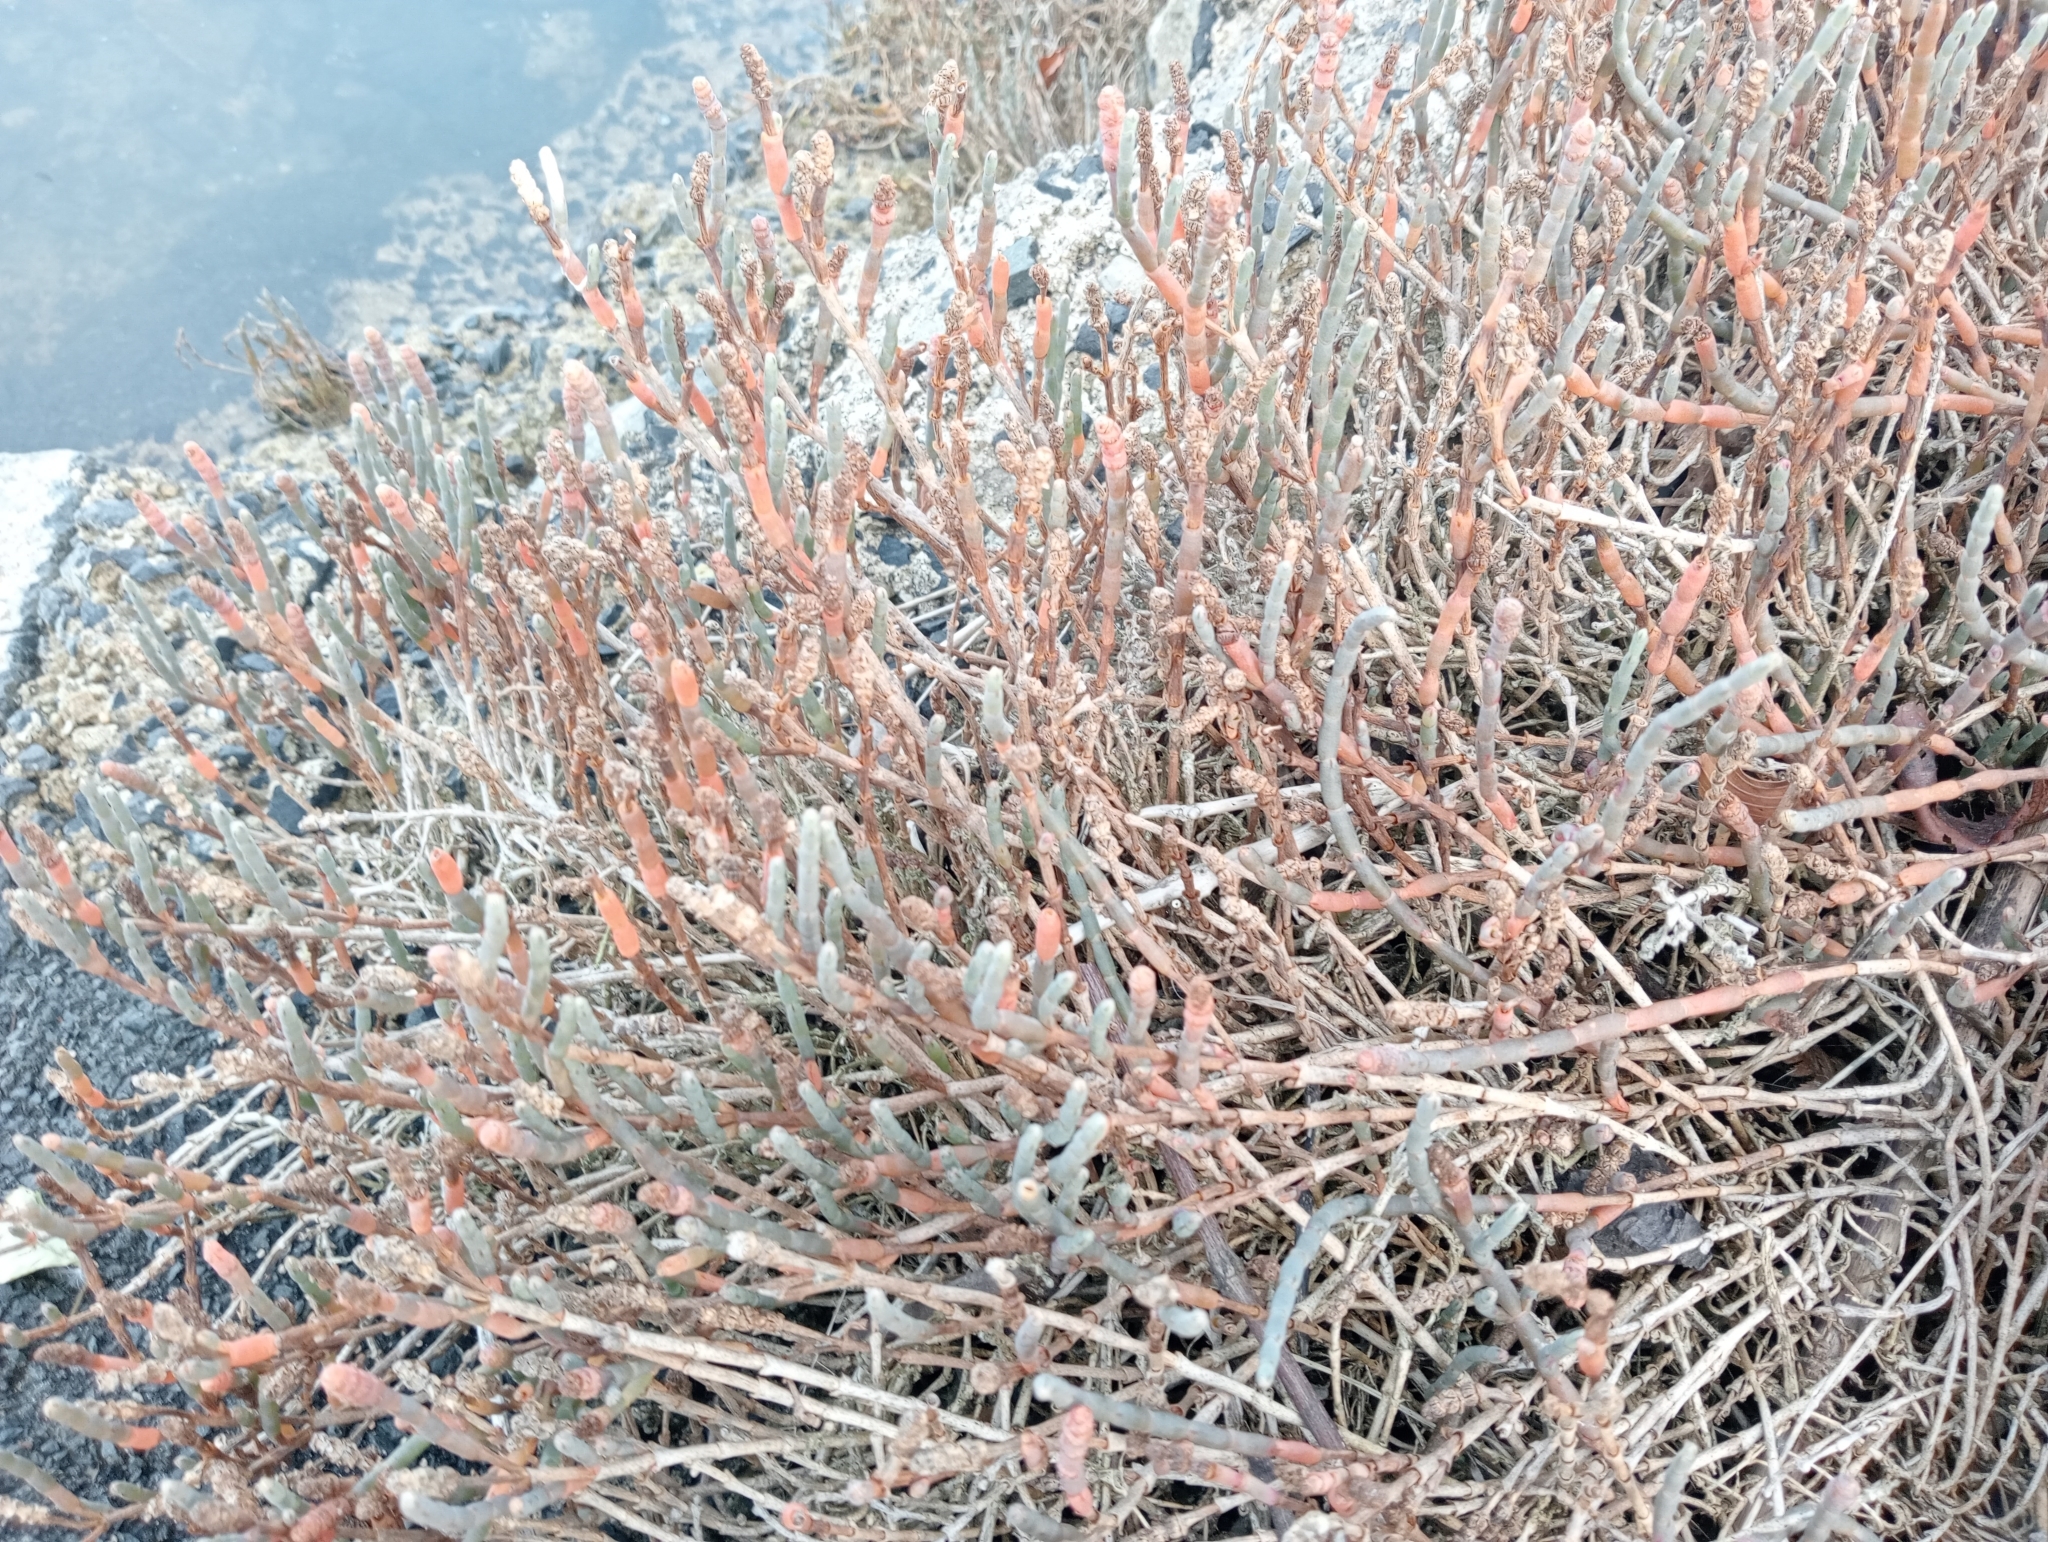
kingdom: Plantae
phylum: Tracheophyta
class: Magnoliopsida
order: Caryophyllales
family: Amaranthaceae
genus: Salicornia
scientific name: Salicornia quinqueflora
